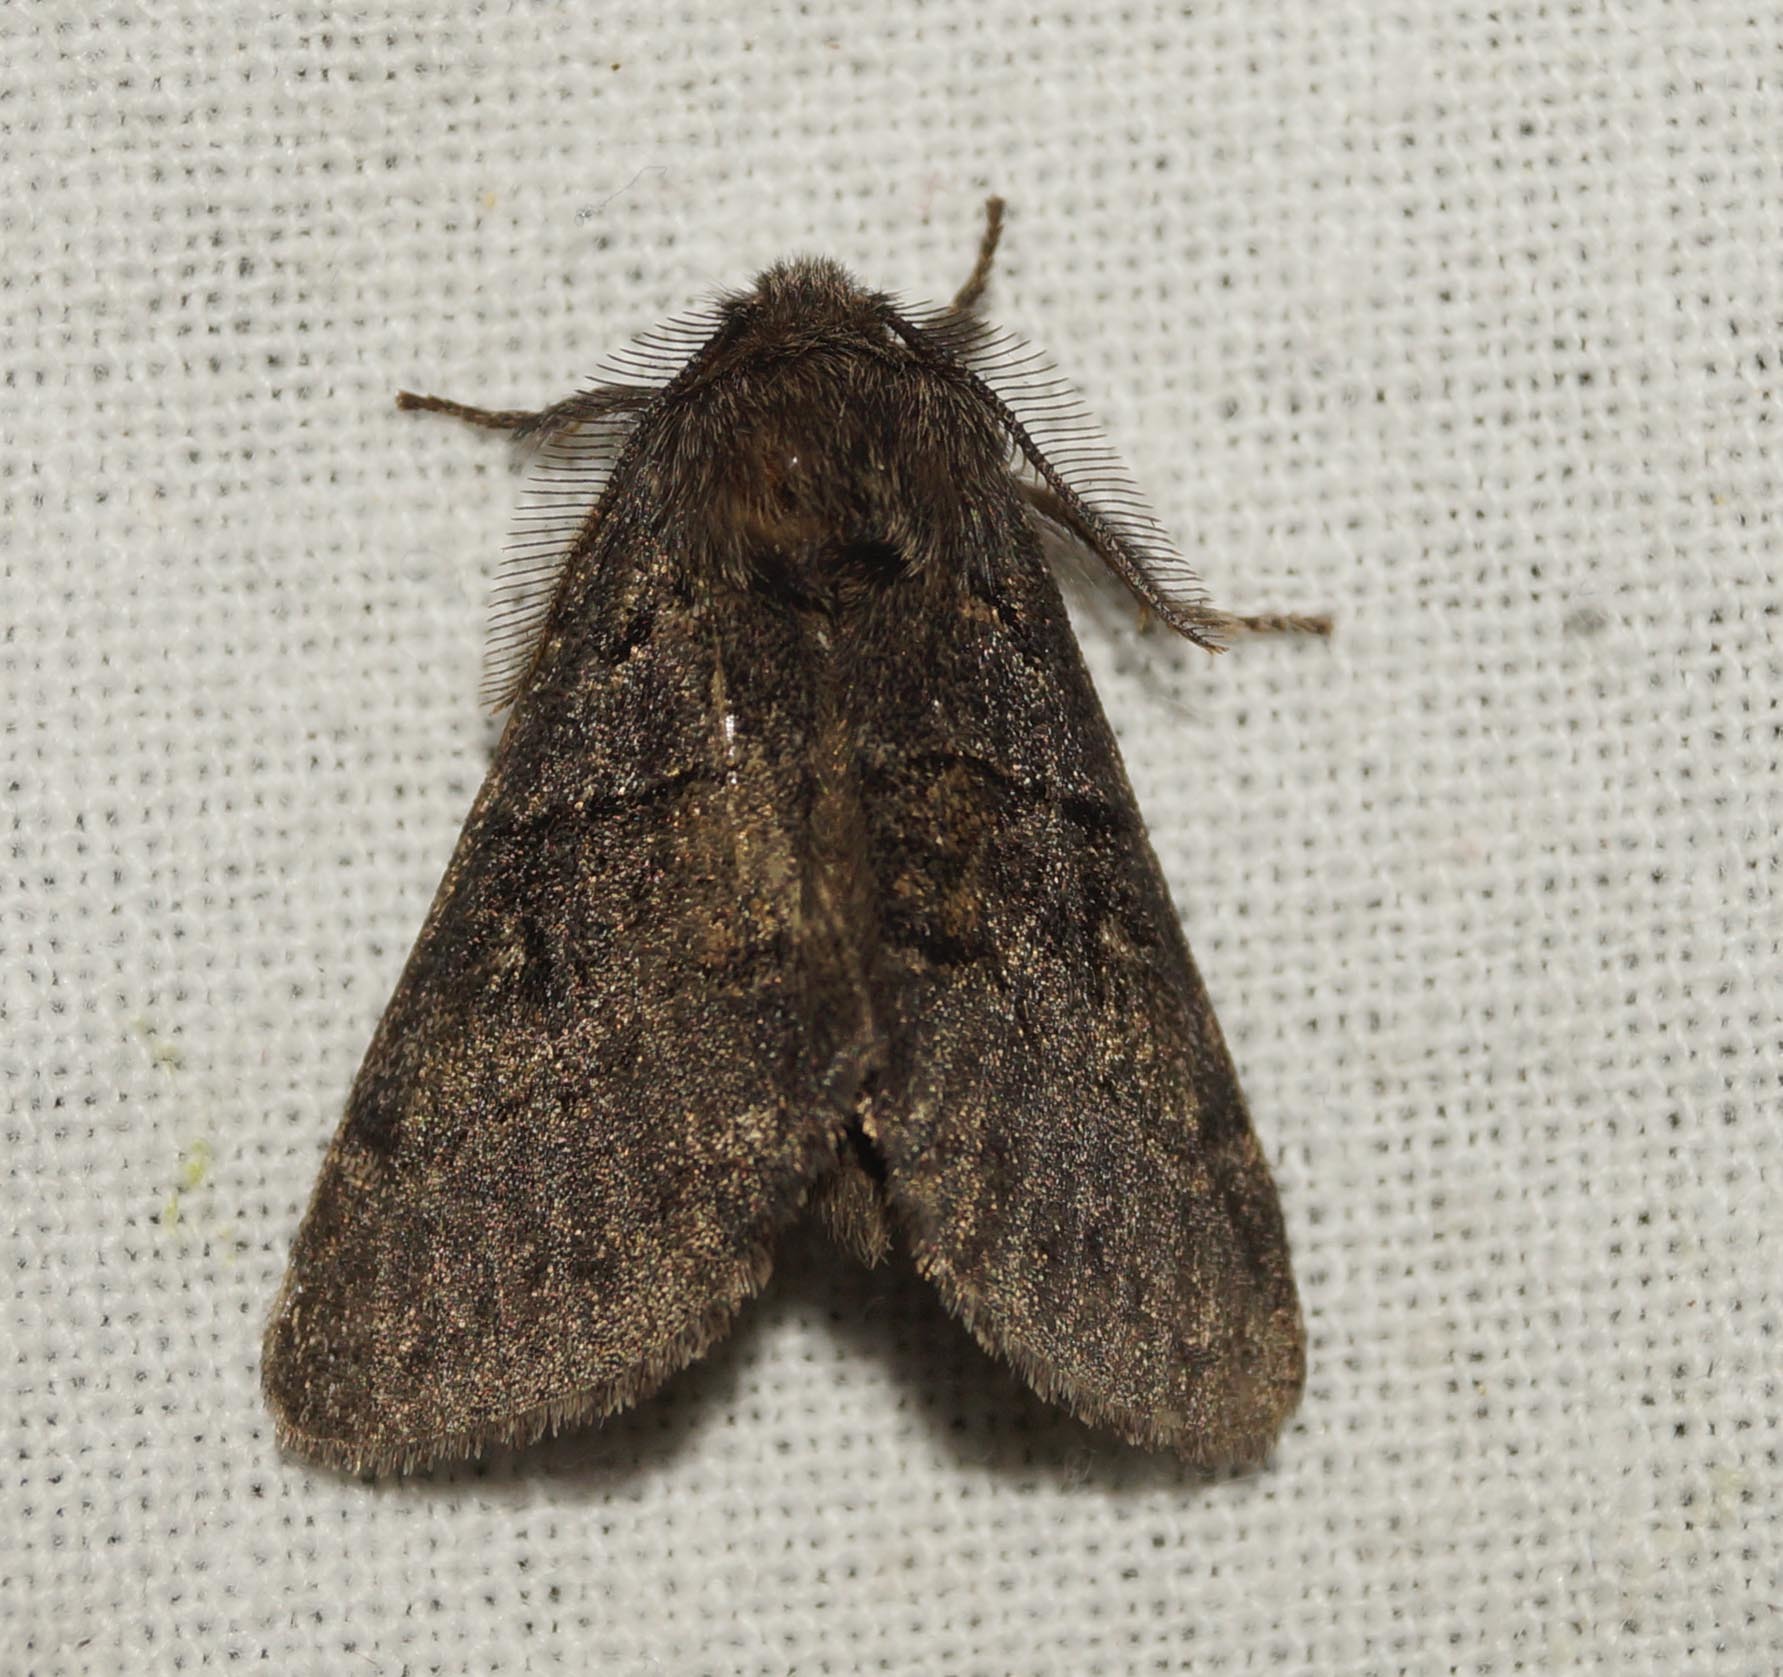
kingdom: Animalia
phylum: Arthropoda
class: Insecta
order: Lepidoptera
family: Notodontidae
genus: Gluphisia
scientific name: Gluphisia crenata
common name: Dusky marbled brown
